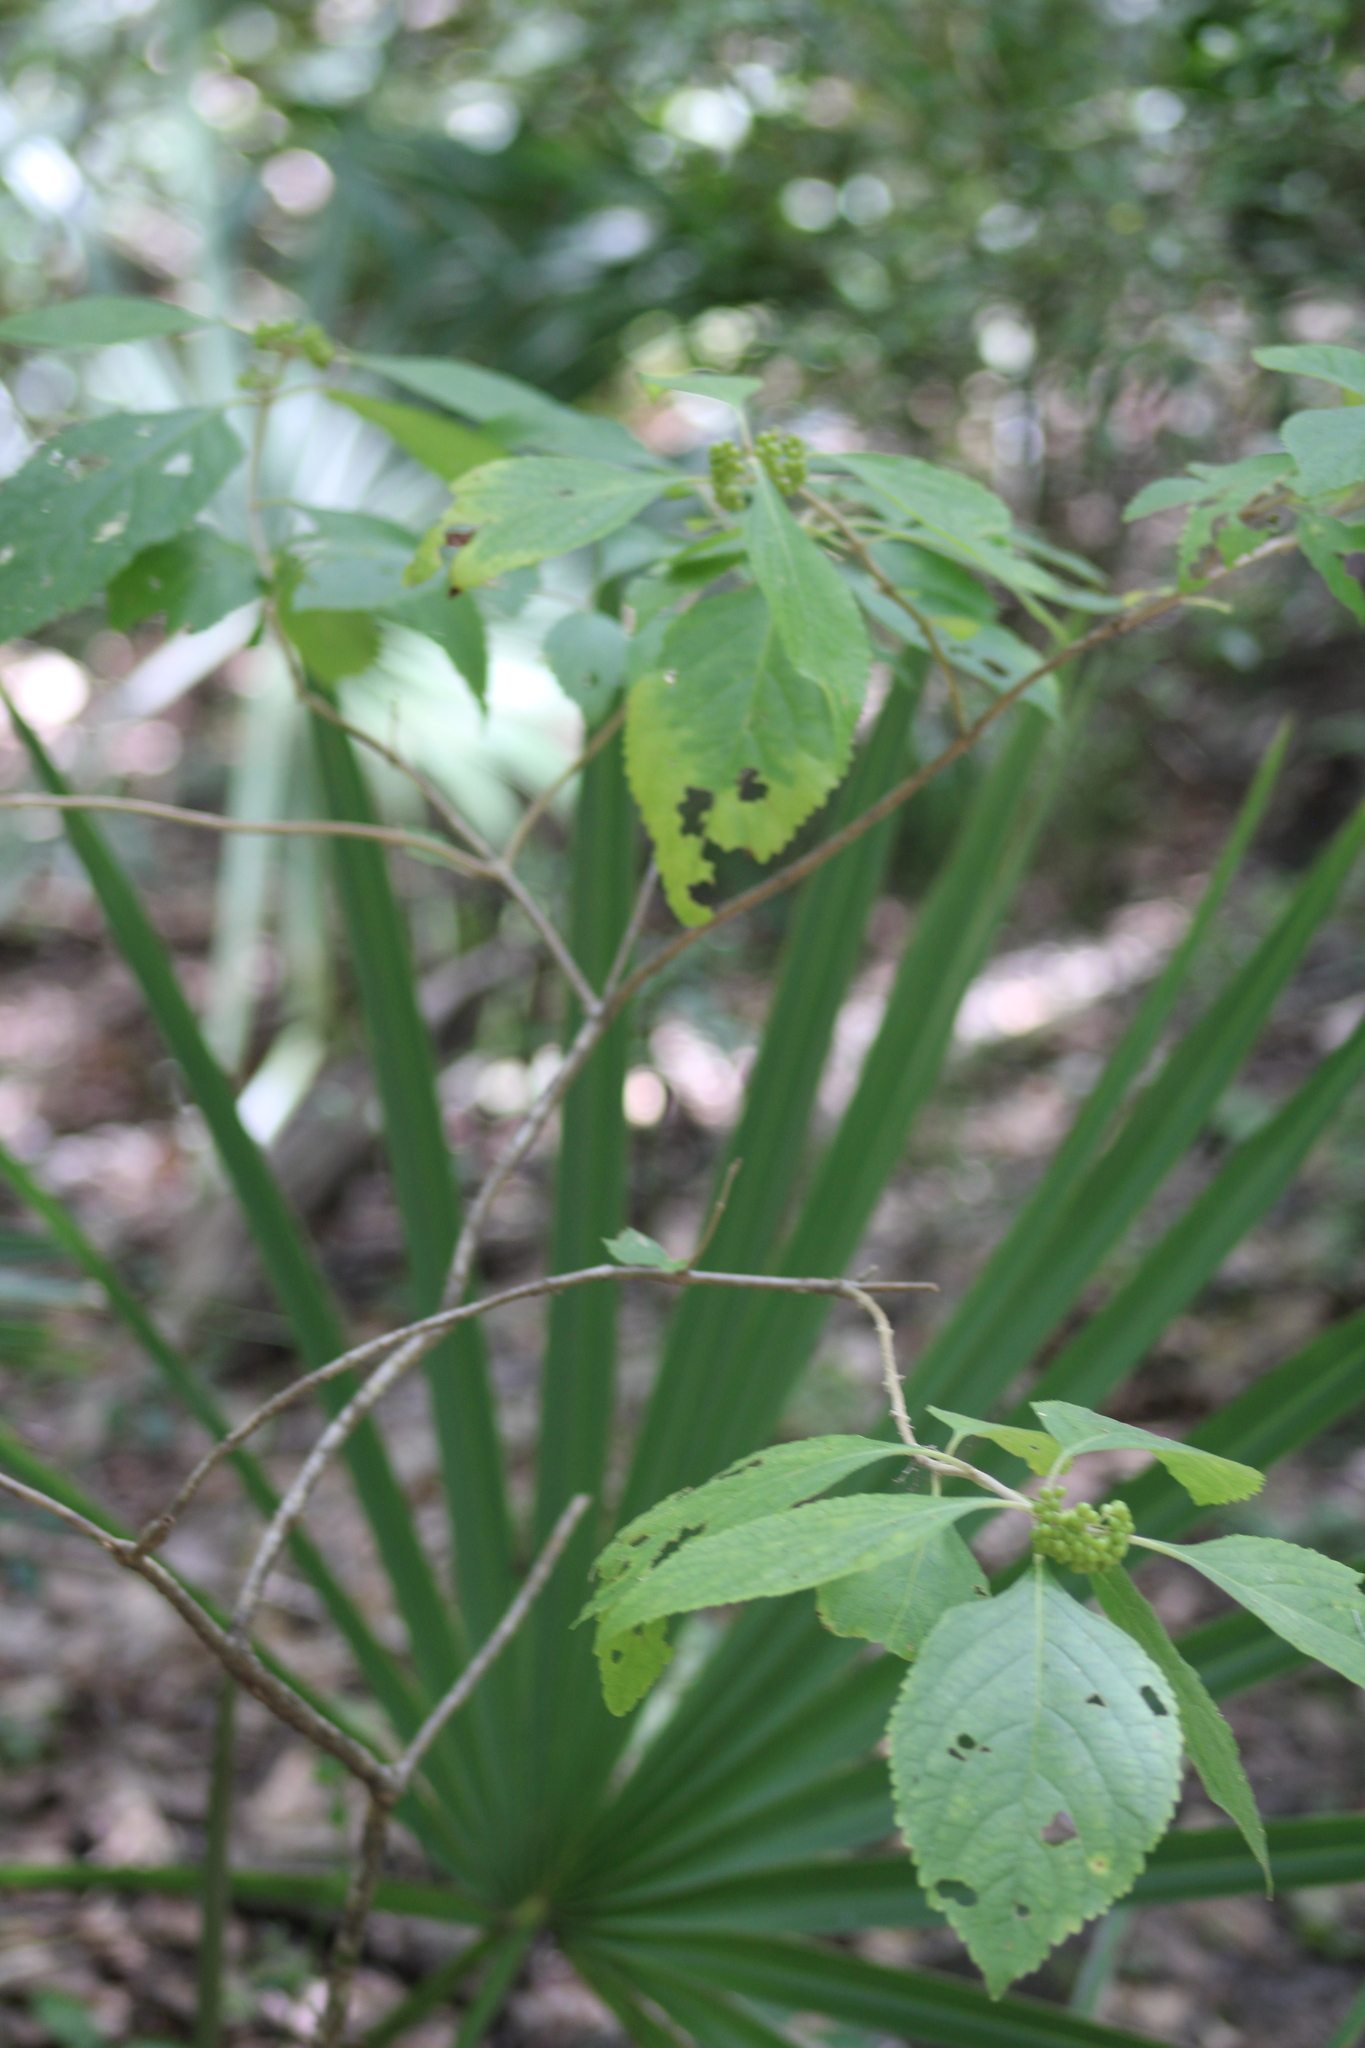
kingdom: Plantae
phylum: Tracheophyta
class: Magnoliopsida
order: Lamiales
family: Lamiaceae
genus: Callicarpa
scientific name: Callicarpa americana
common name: American beautyberry
